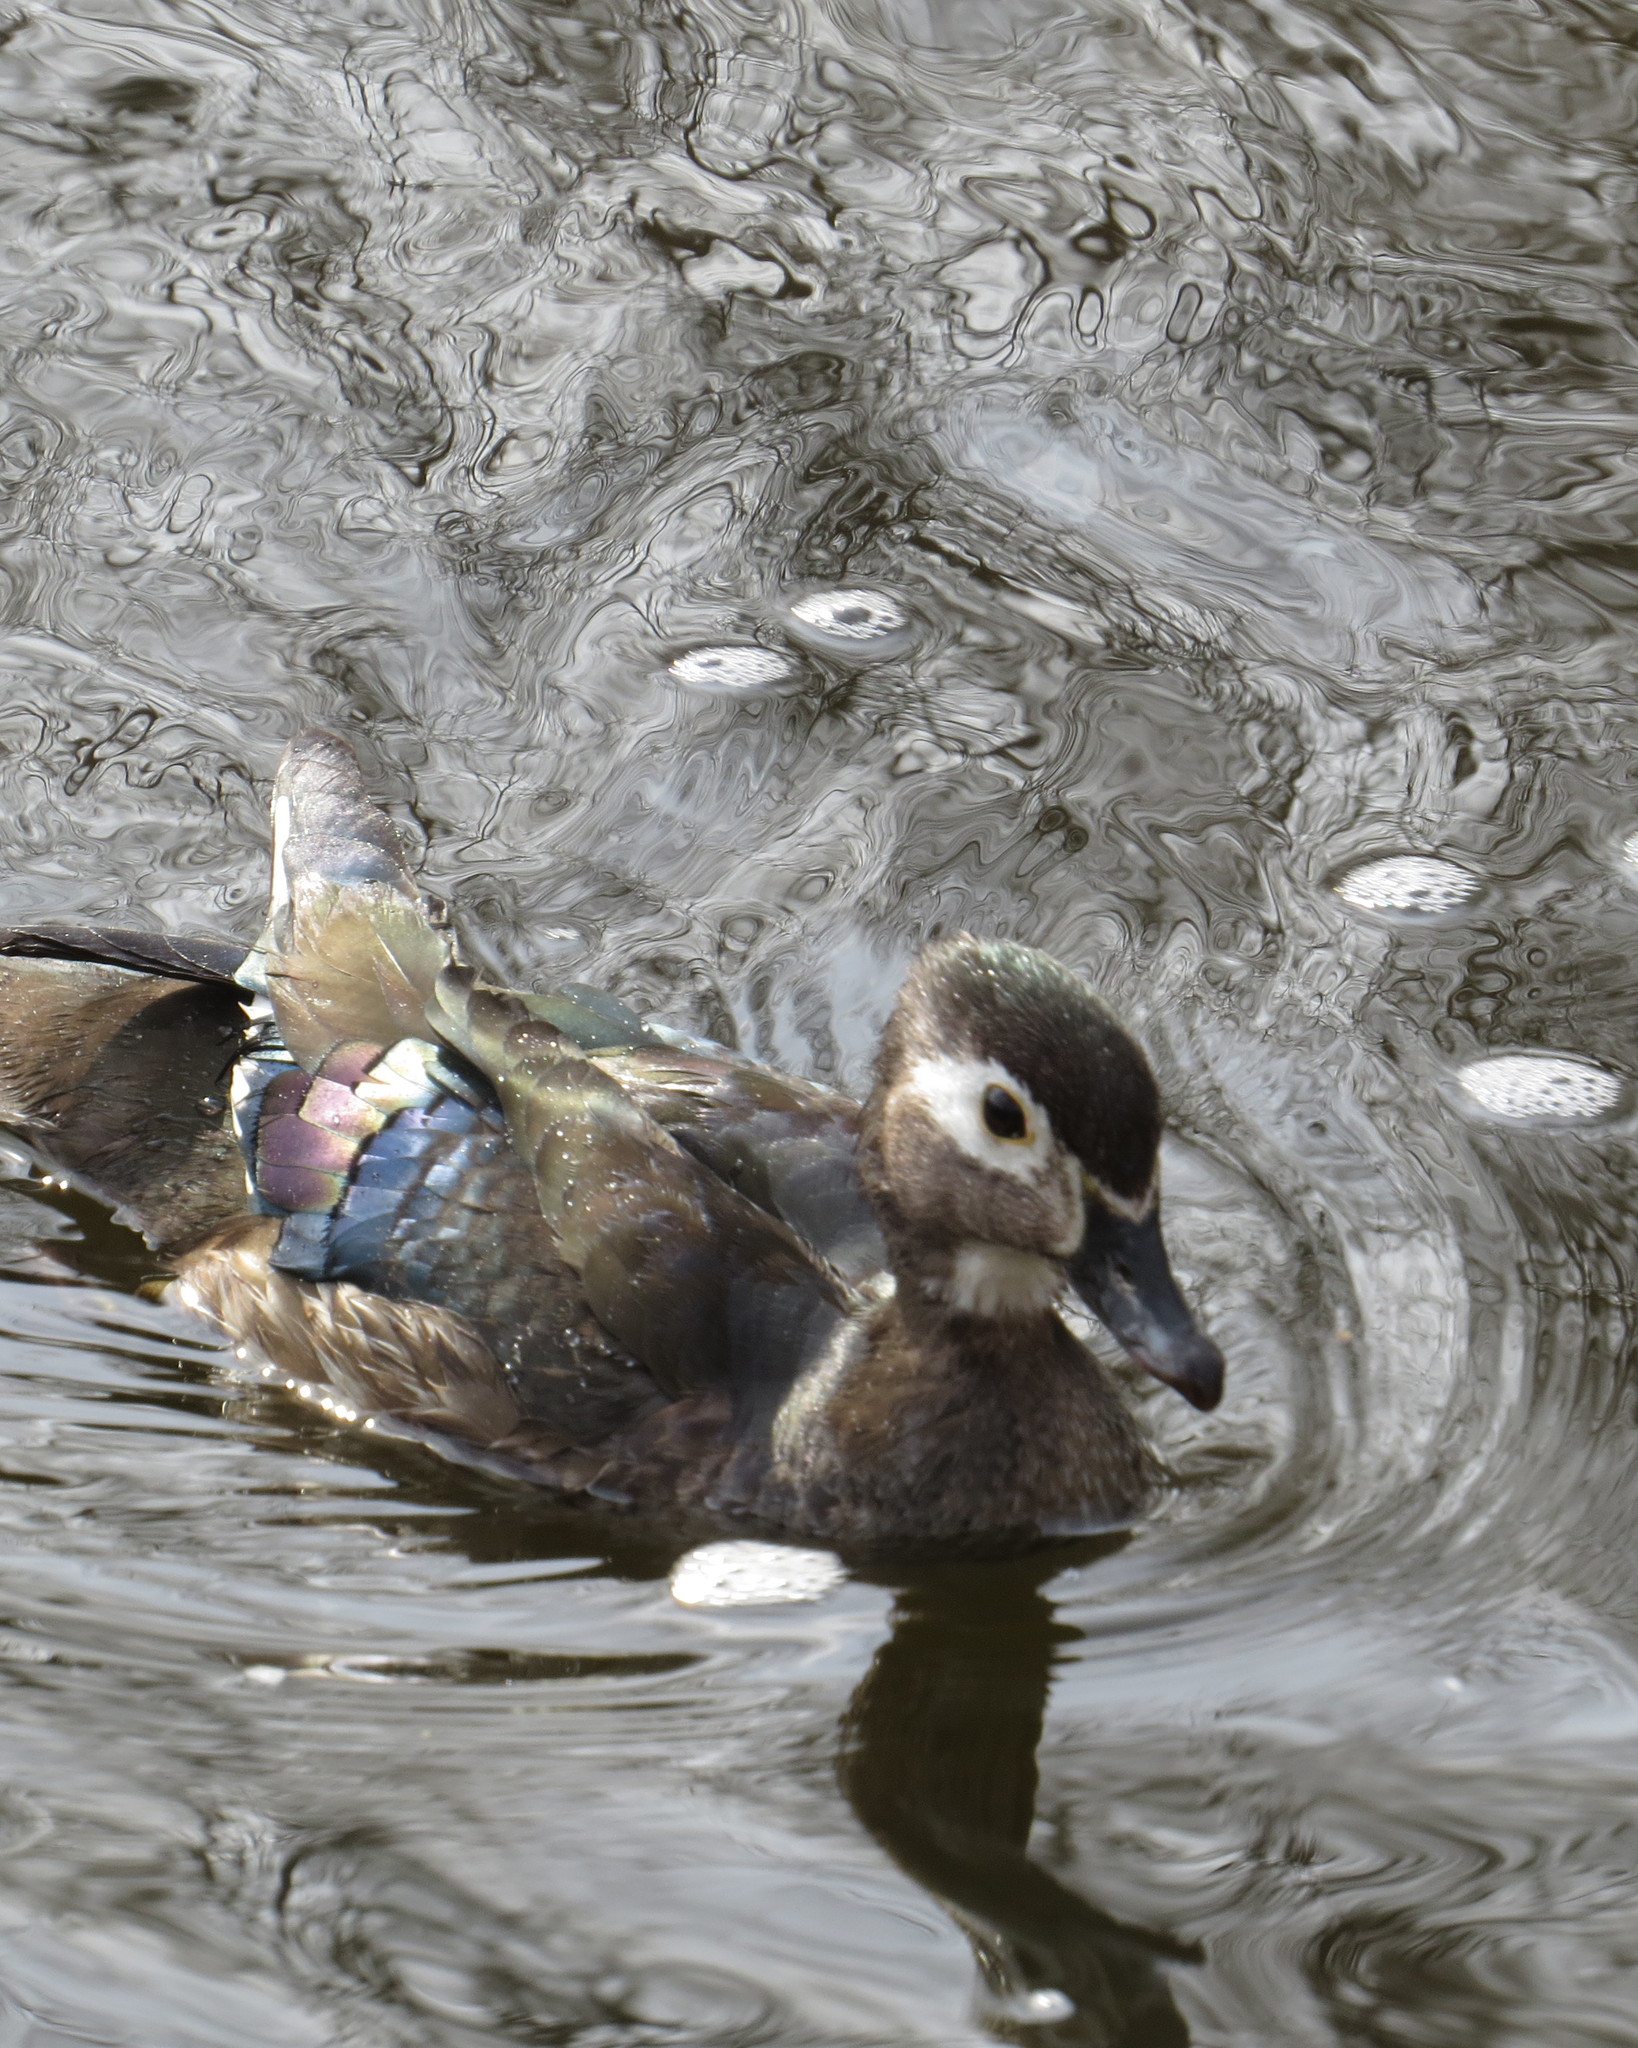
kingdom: Animalia
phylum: Chordata
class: Aves
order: Anseriformes
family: Anatidae
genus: Aix
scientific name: Aix sponsa
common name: Wood duck
